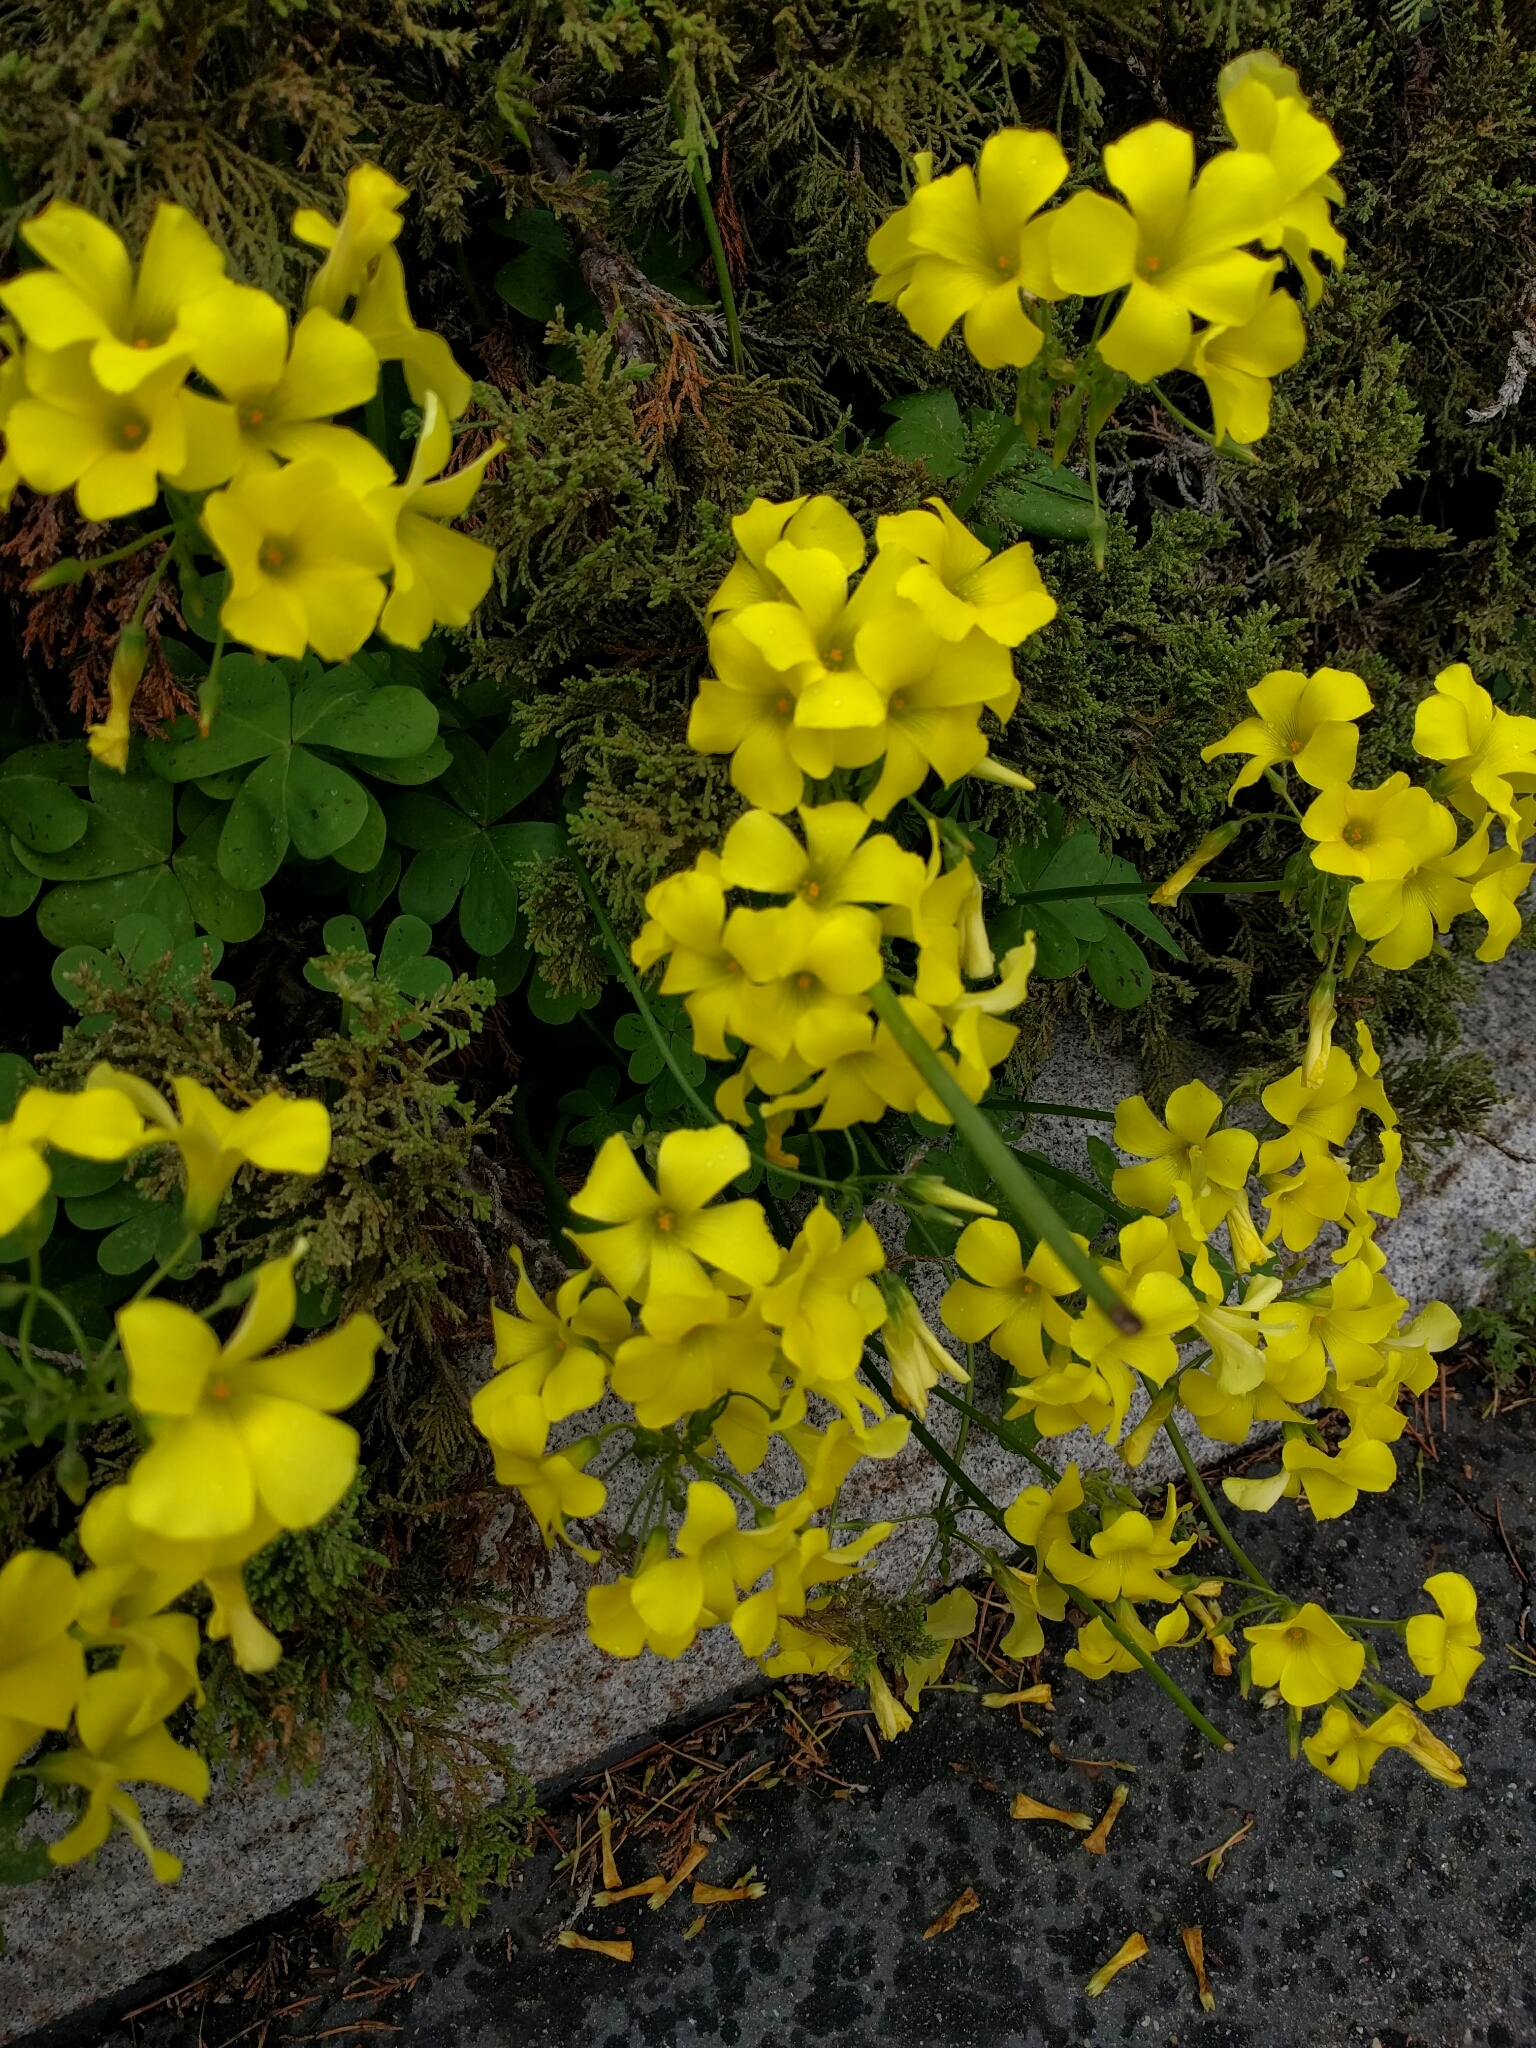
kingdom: Plantae
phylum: Tracheophyta
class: Magnoliopsida
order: Oxalidales
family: Oxalidaceae
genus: Oxalis
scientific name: Oxalis pes-caprae
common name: Bermuda-buttercup
